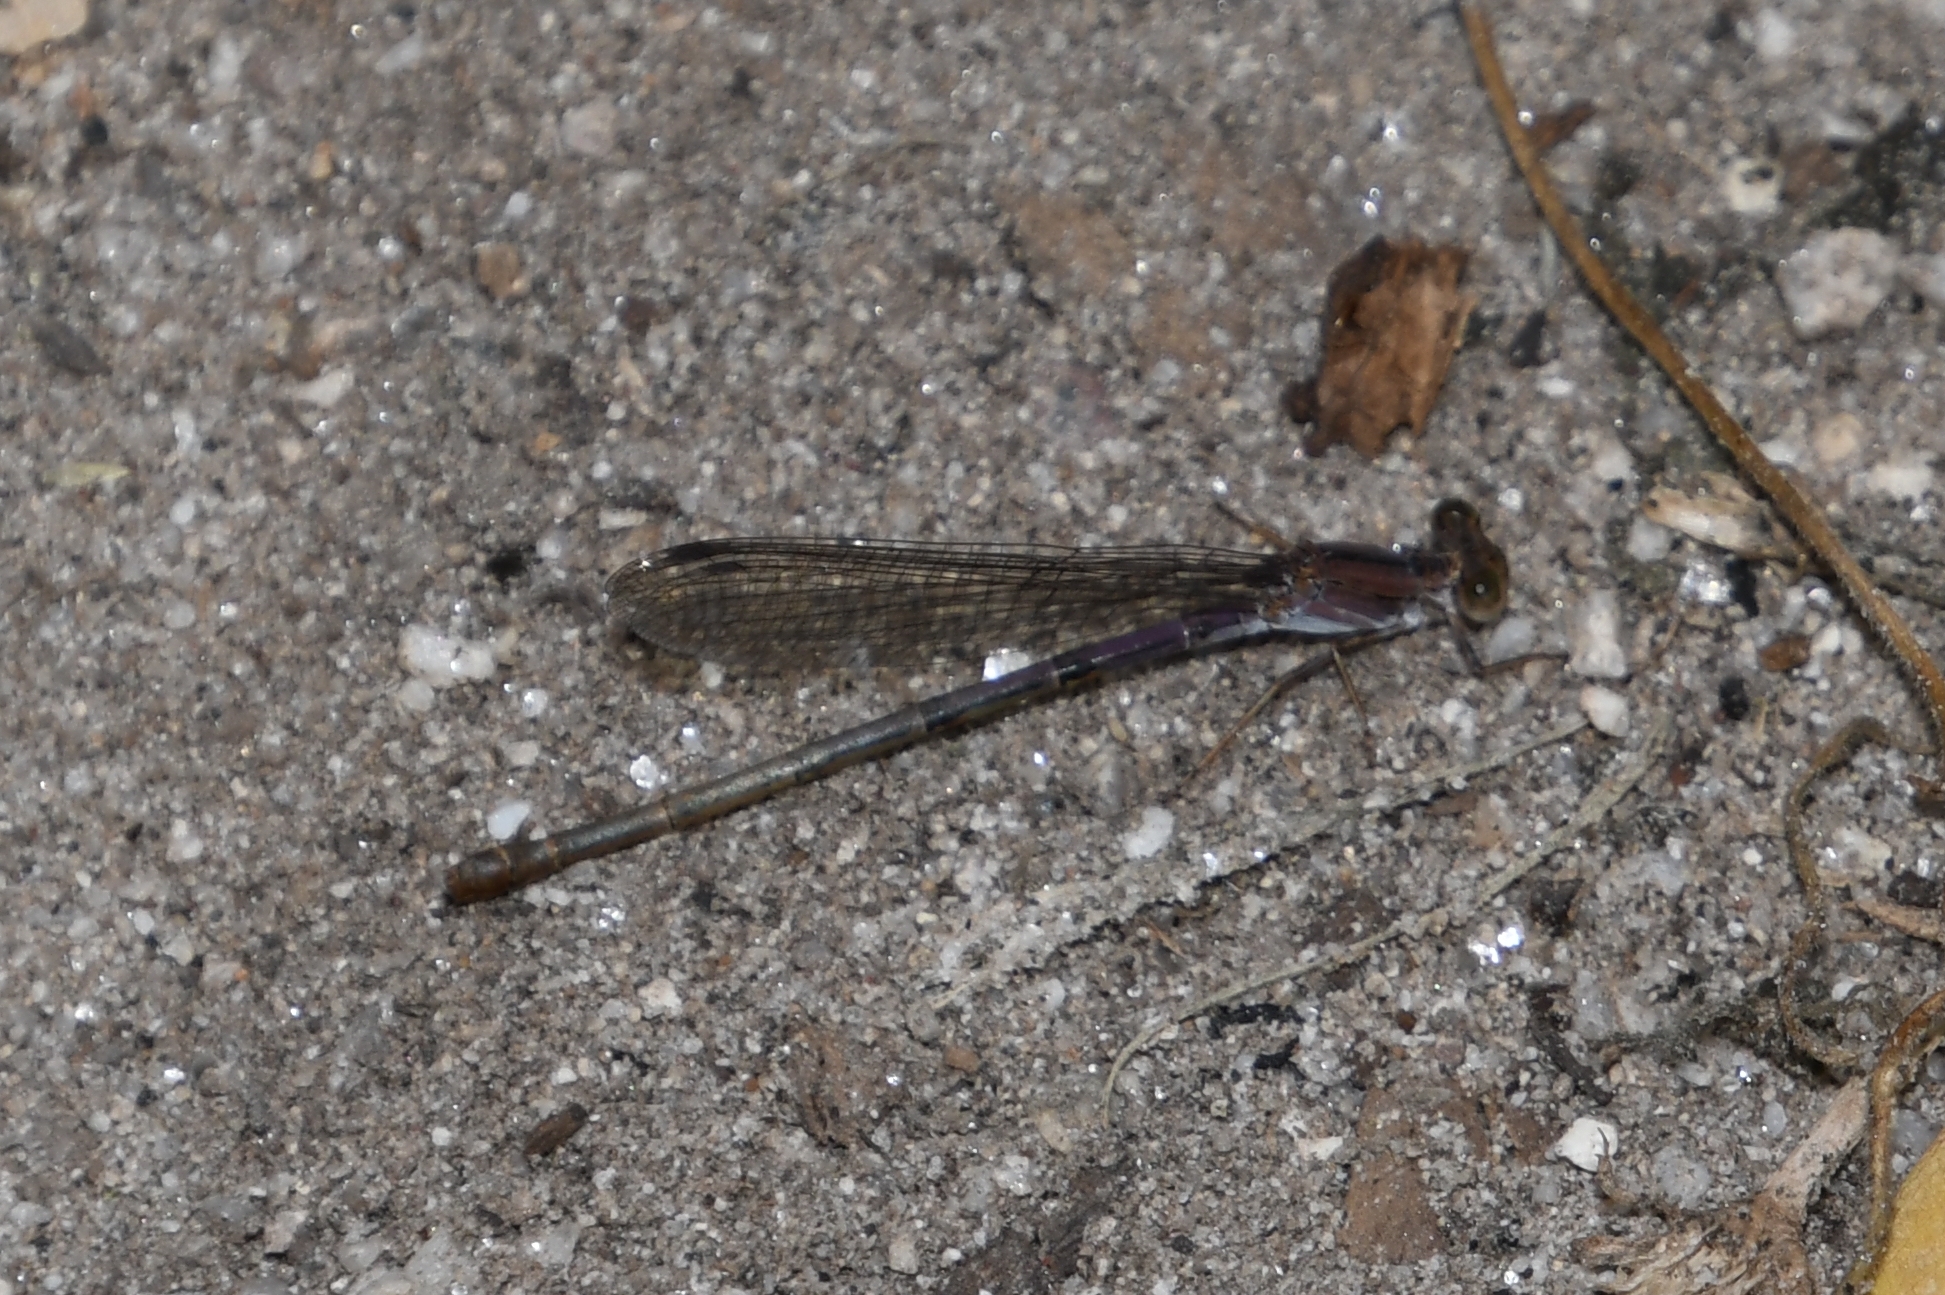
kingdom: Animalia
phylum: Arthropoda
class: Insecta
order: Odonata
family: Coenagrionidae
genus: Argia
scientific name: Argia pallens
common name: Amethyst dancer
